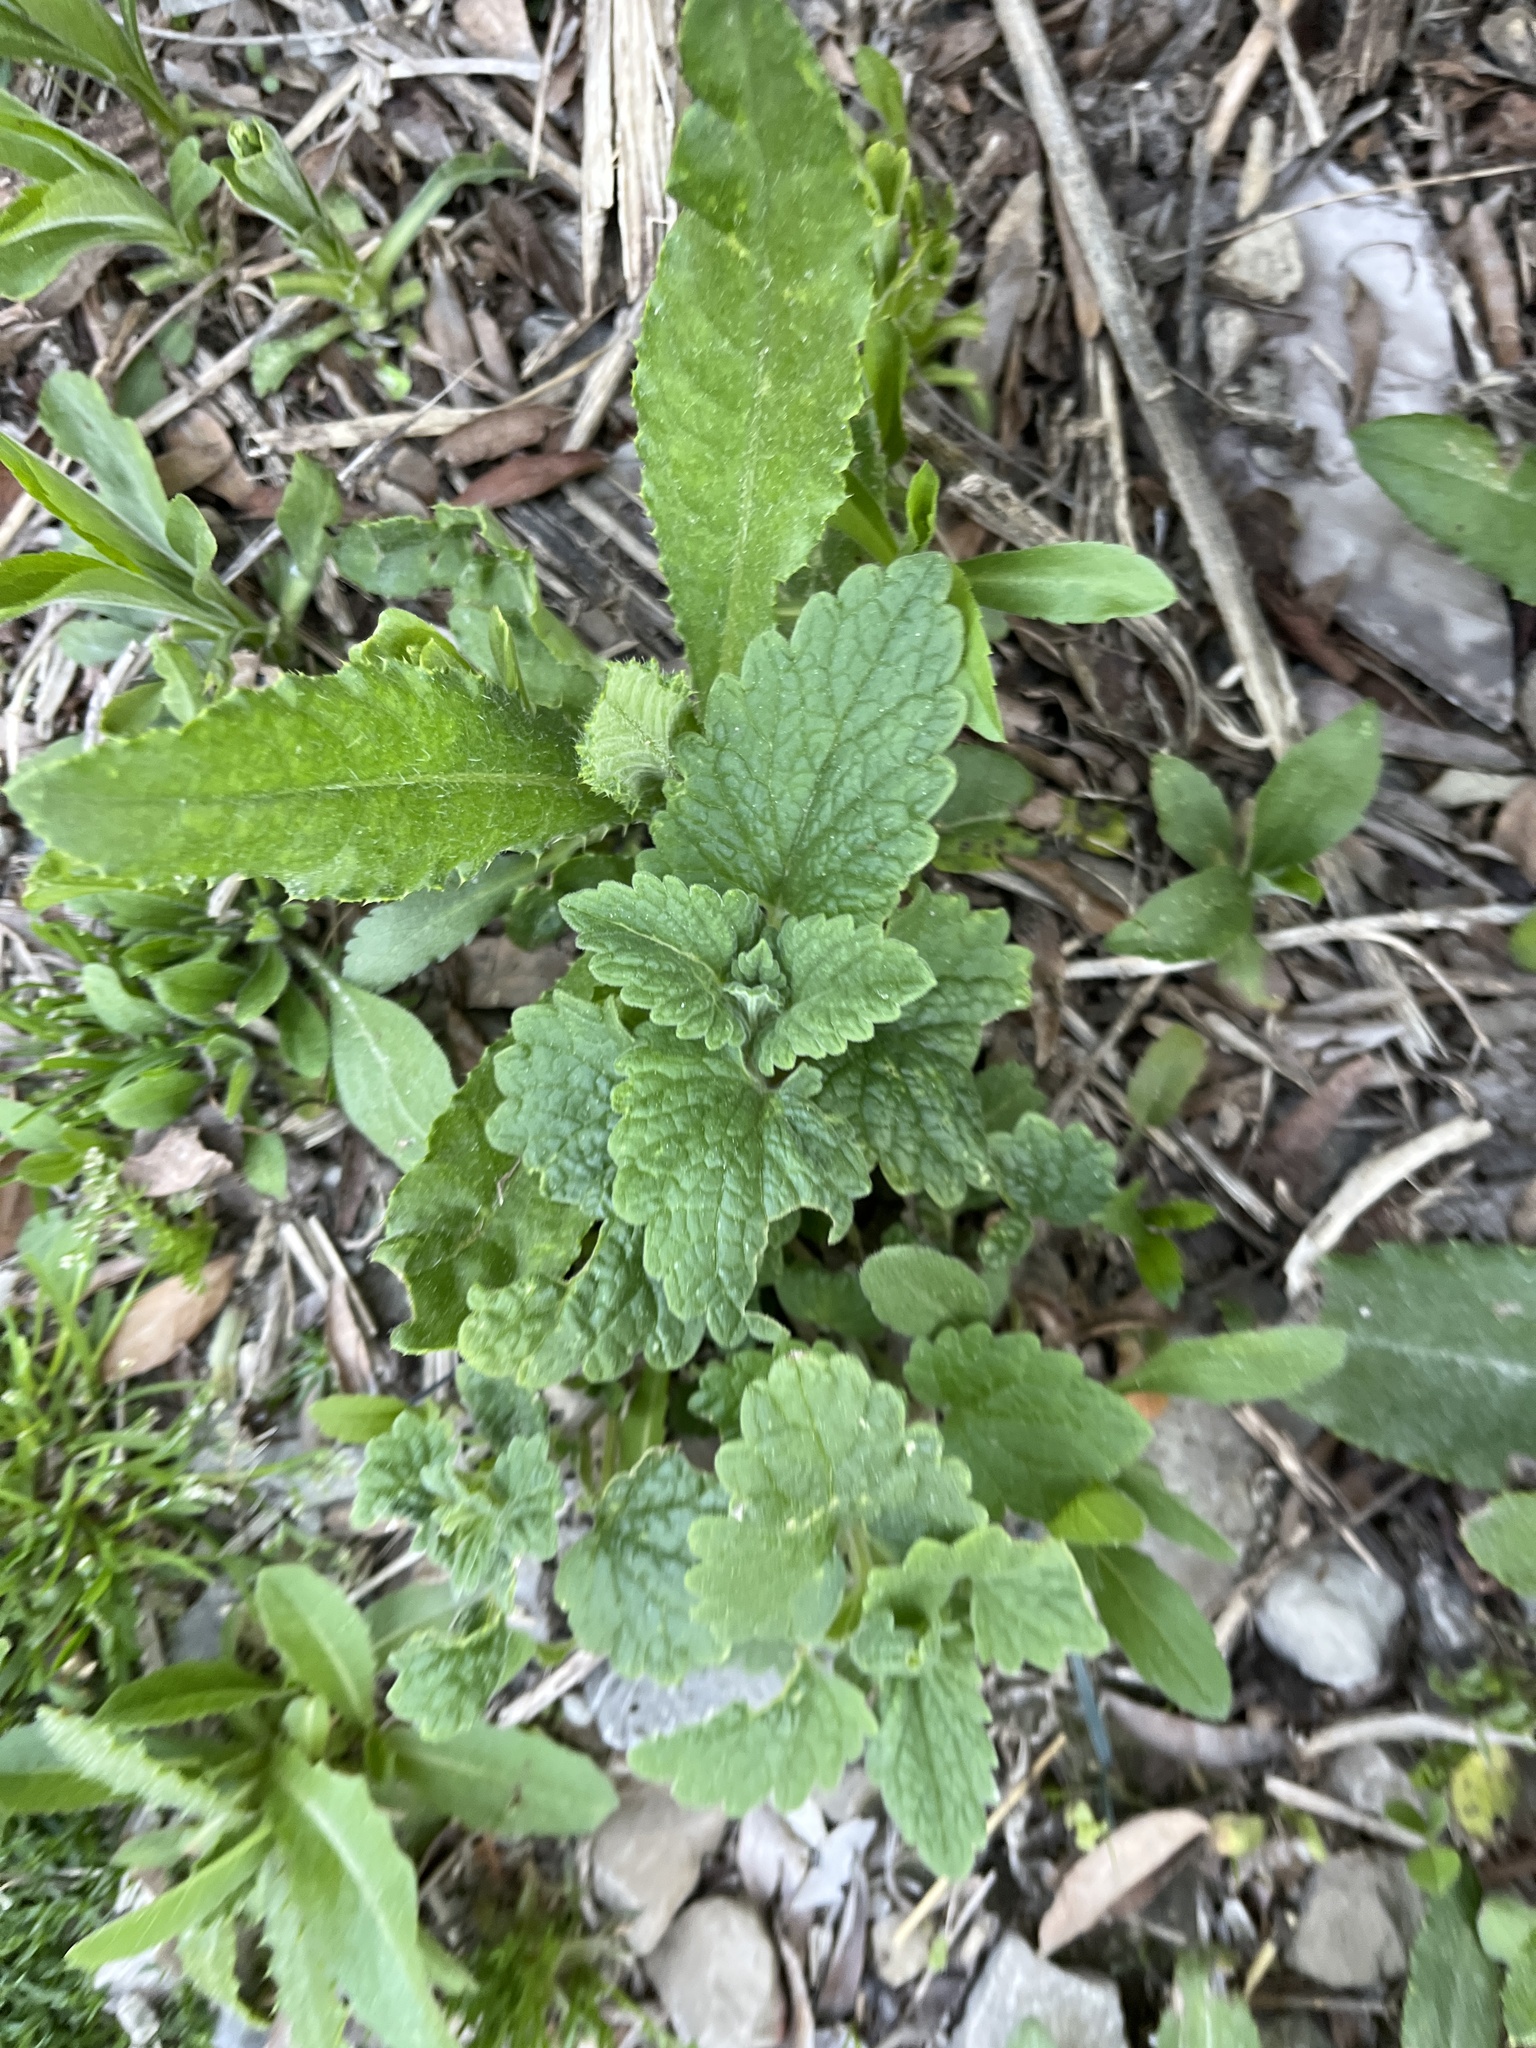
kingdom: Plantae
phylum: Tracheophyta
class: Magnoliopsida
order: Lamiales
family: Lamiaceae
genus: Nepeta
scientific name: Nepeta cataria
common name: Catnip
